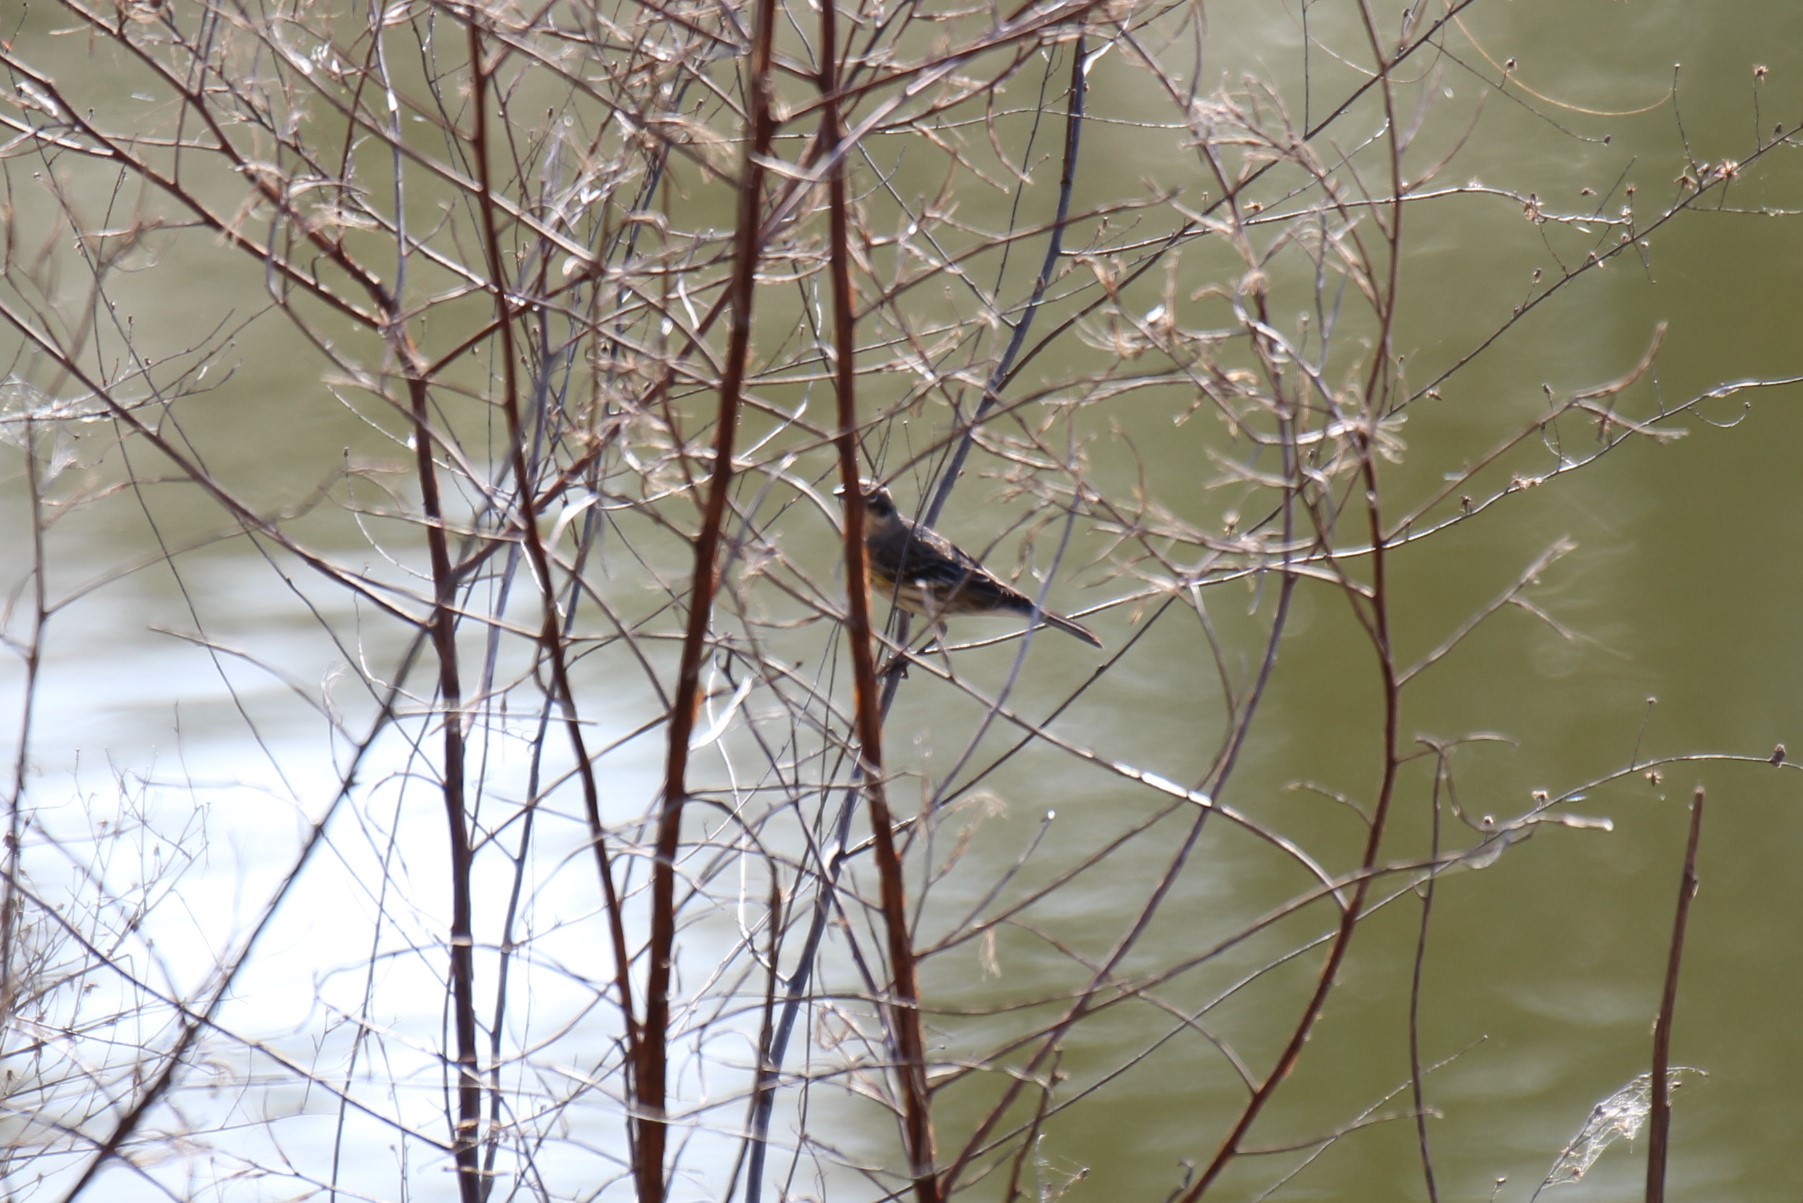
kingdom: Animalia
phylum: Chordata
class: Aves
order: Passeriformes
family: Parulidae
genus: Setophaga
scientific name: Setophaga coronata
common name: Myrtle warbler
